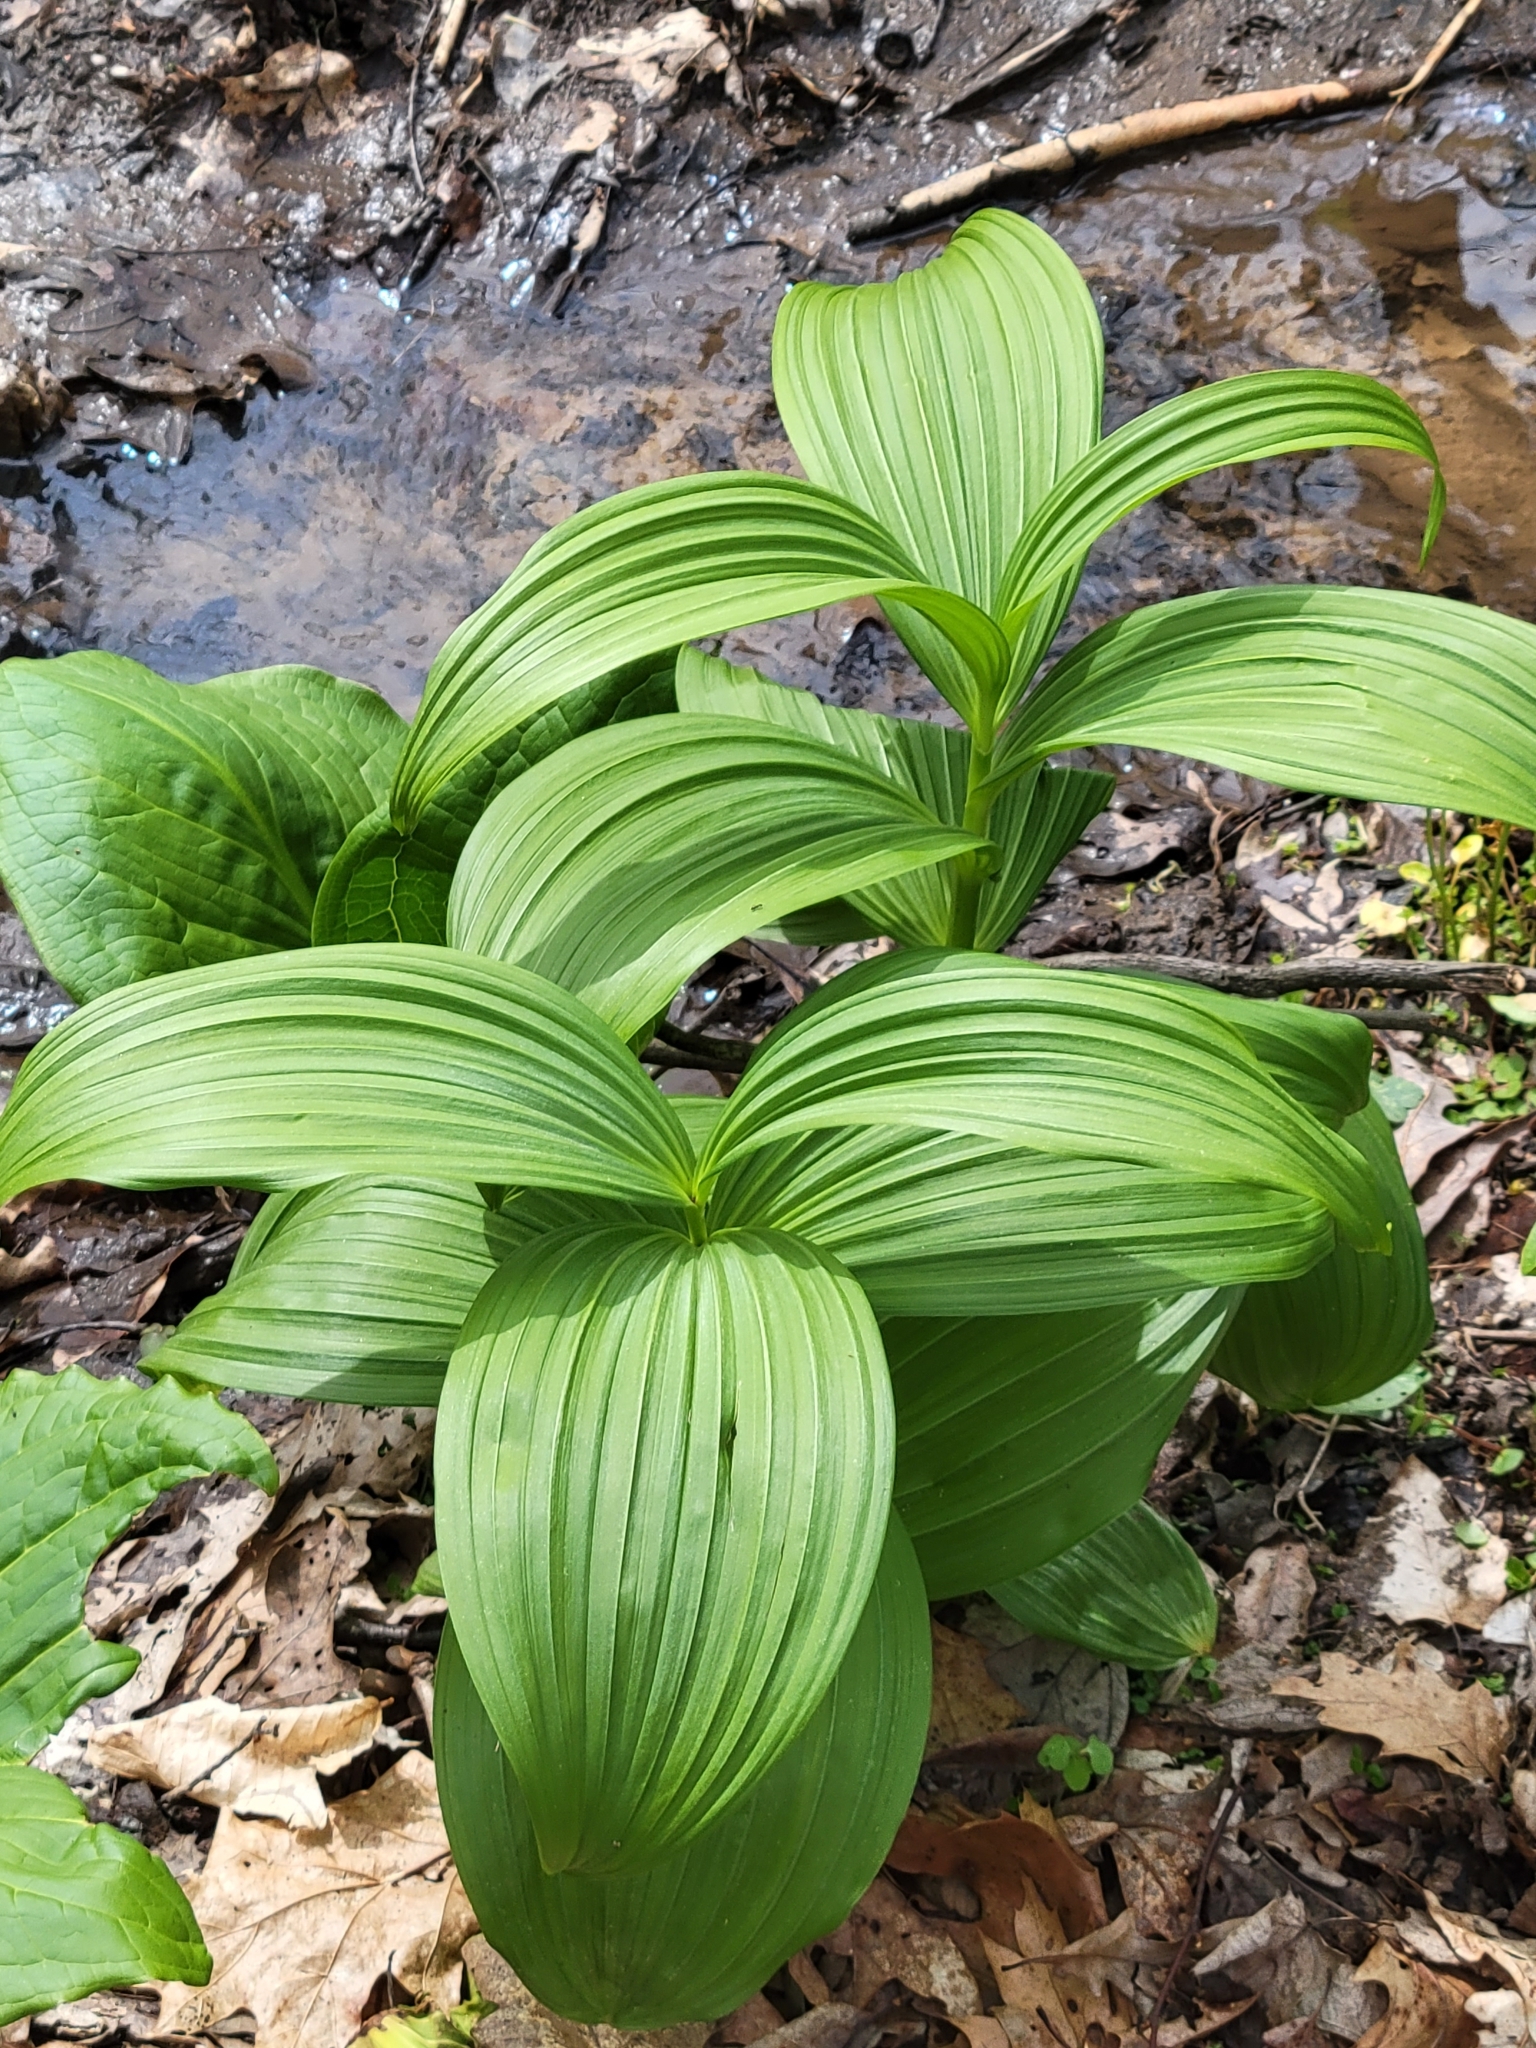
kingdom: Plantae
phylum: Tracheophyta
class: Liliopsida
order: Liliales
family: Melanthiaceae
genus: Veratrum
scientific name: Veratrum viride
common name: American false hellebore
